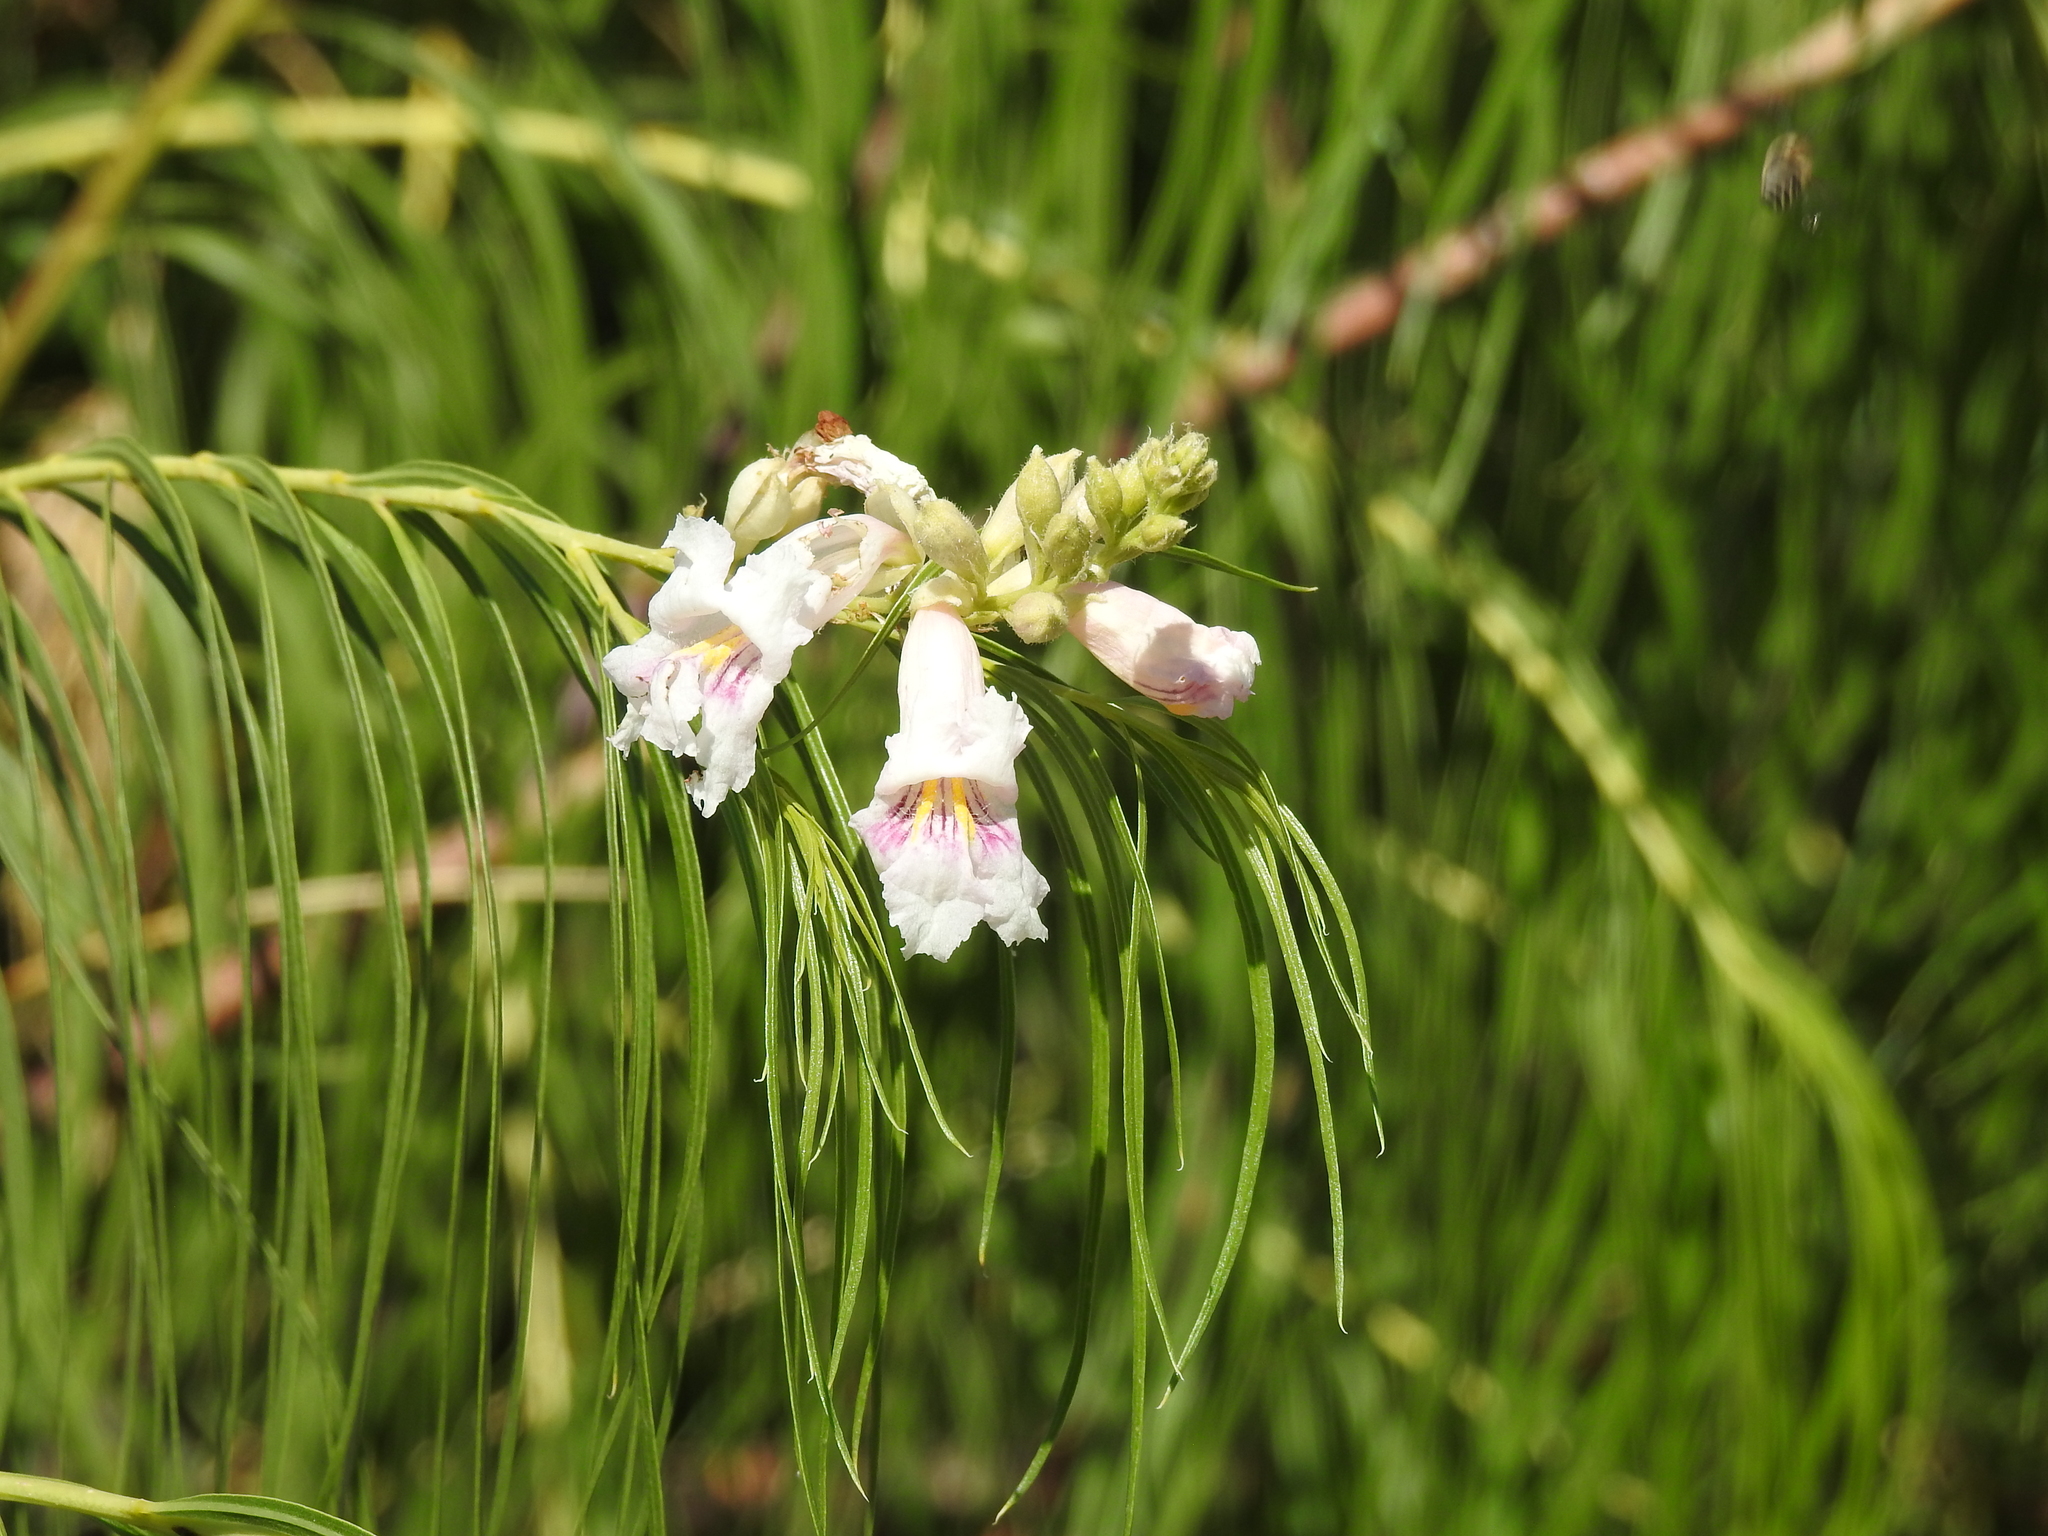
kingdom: Plantae
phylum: Tracheophyta
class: Magnoliopsida
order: Lamiales
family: Bignoniaceae
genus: Chilopsis
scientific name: Chilopsis linearis
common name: Desert-willow
